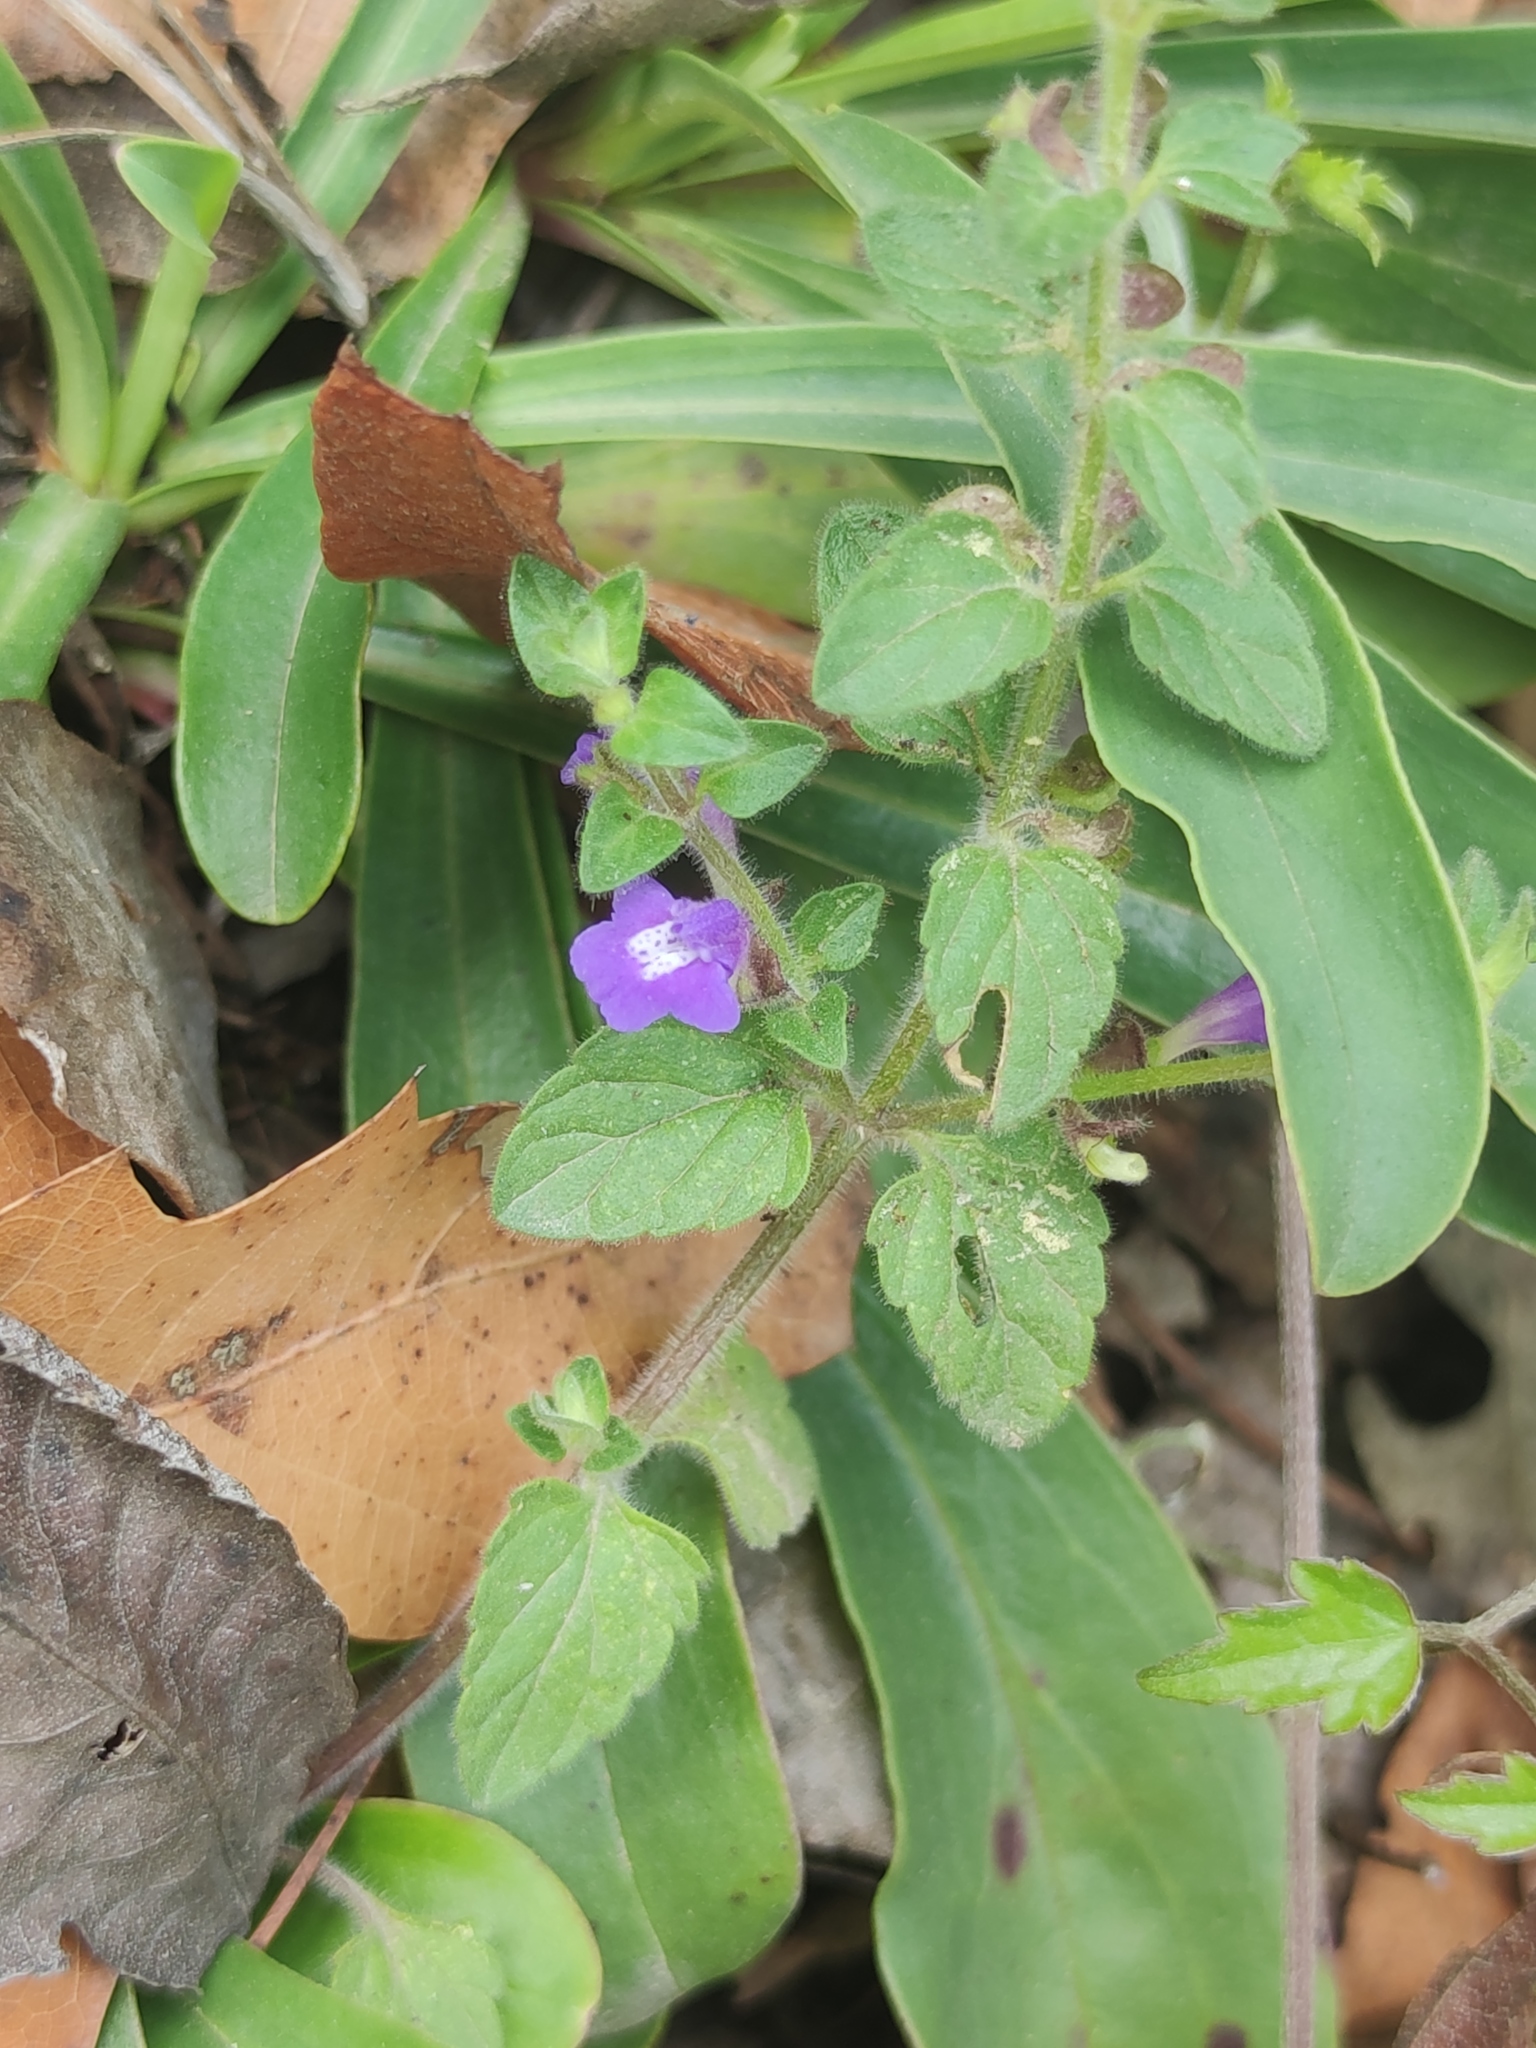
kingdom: Plantae
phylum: Tracheophyta
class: Magnoliopsida
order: Lamiales
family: Lamiaceae
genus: Scutellaria
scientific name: Scutellaria potosina
